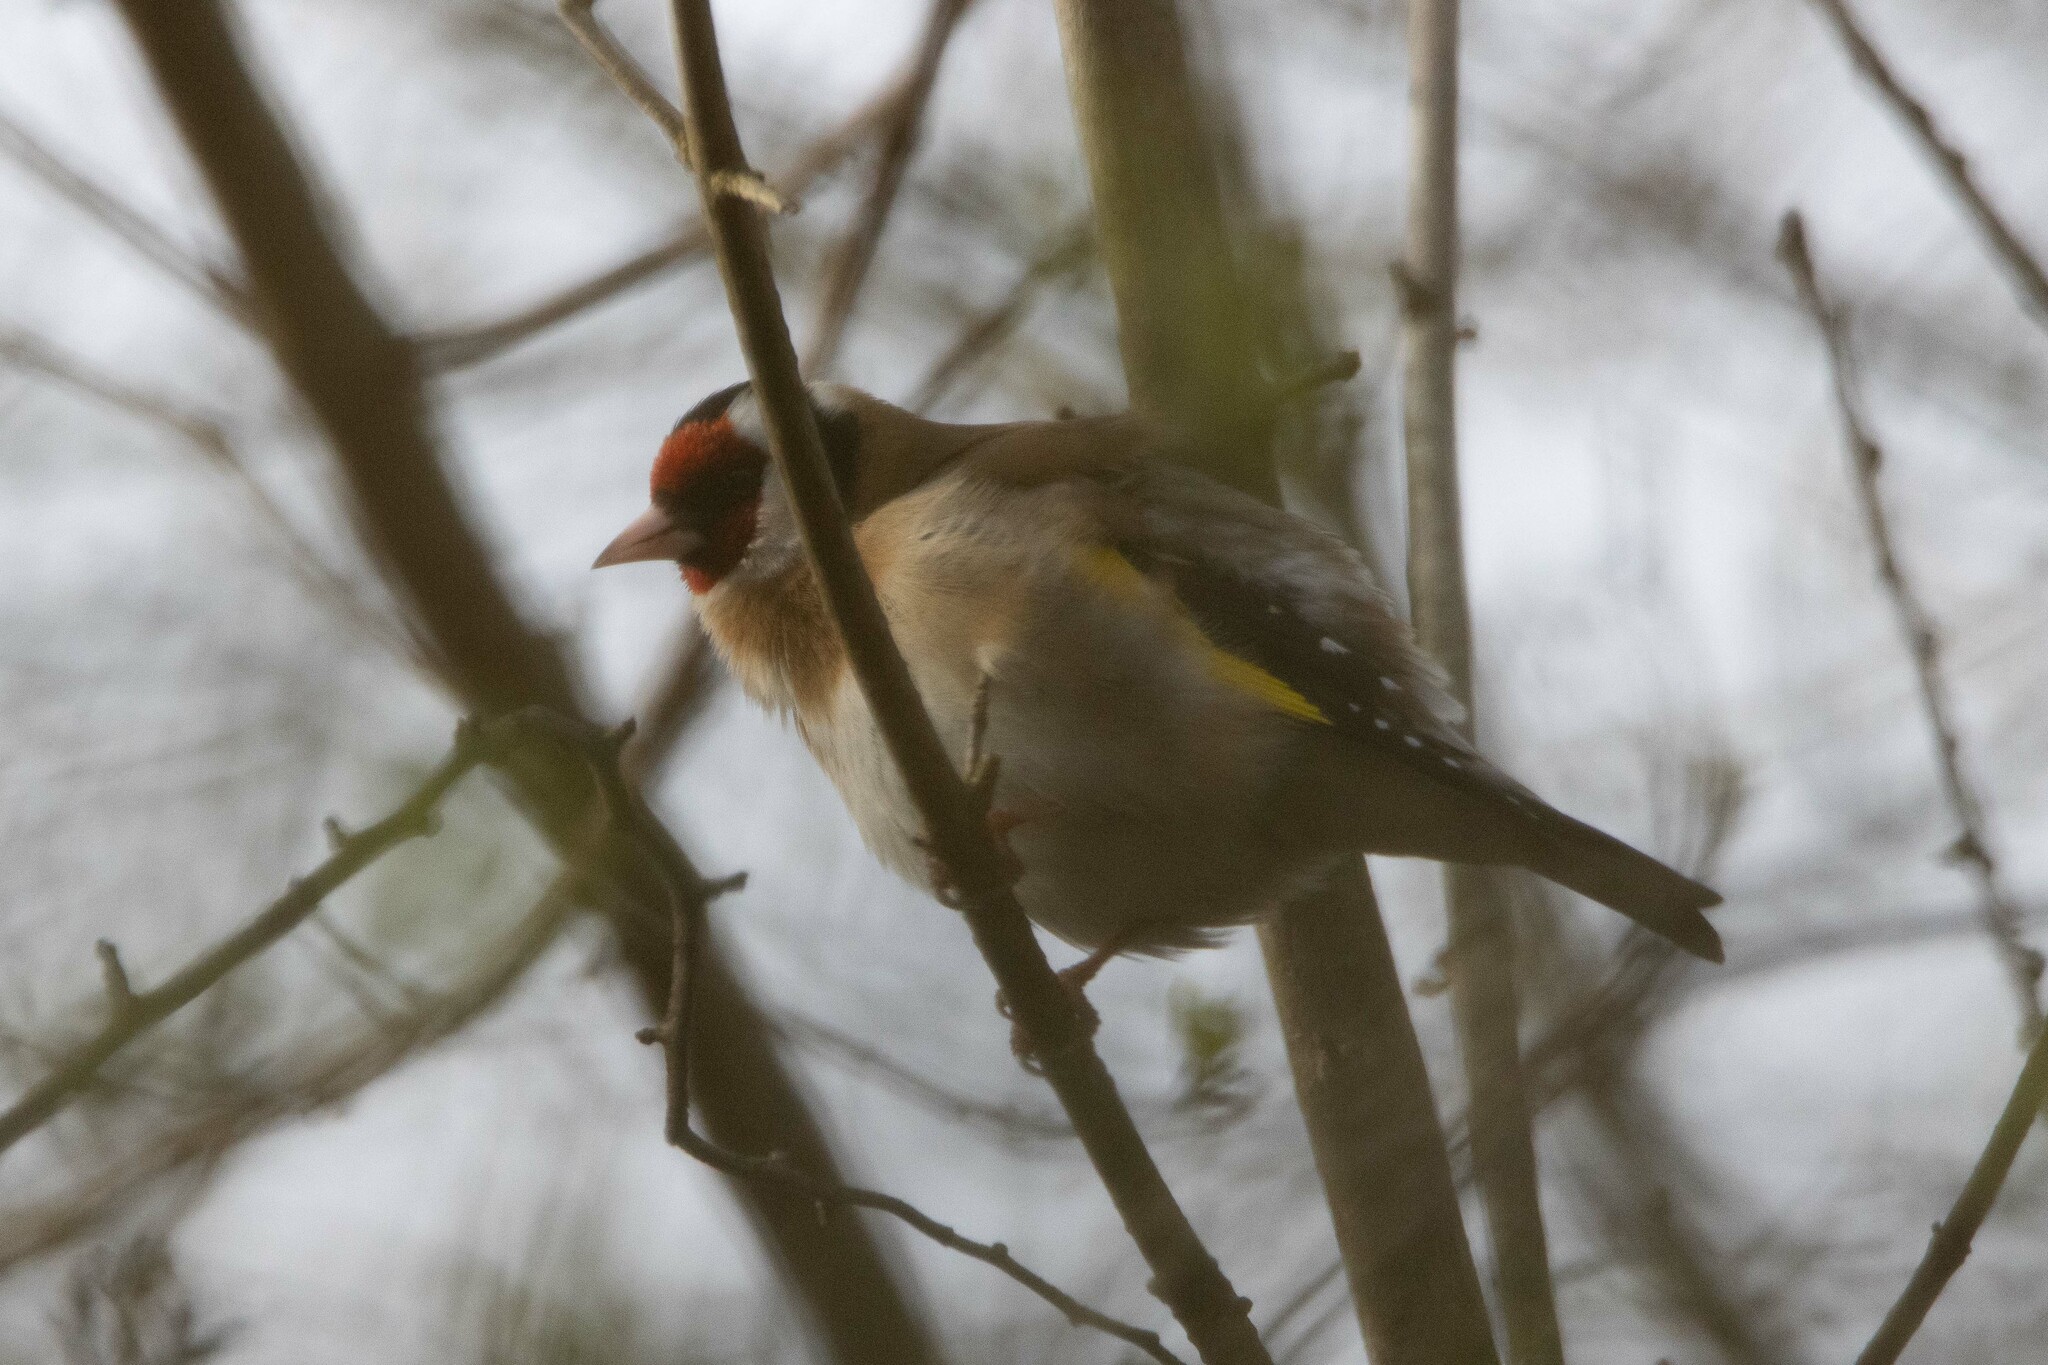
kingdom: Animalia
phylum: Chordata
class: Aves
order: Passeriformes
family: Fringillidae
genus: Carduelis
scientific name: Carduelis carduelis
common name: European goldfinch
